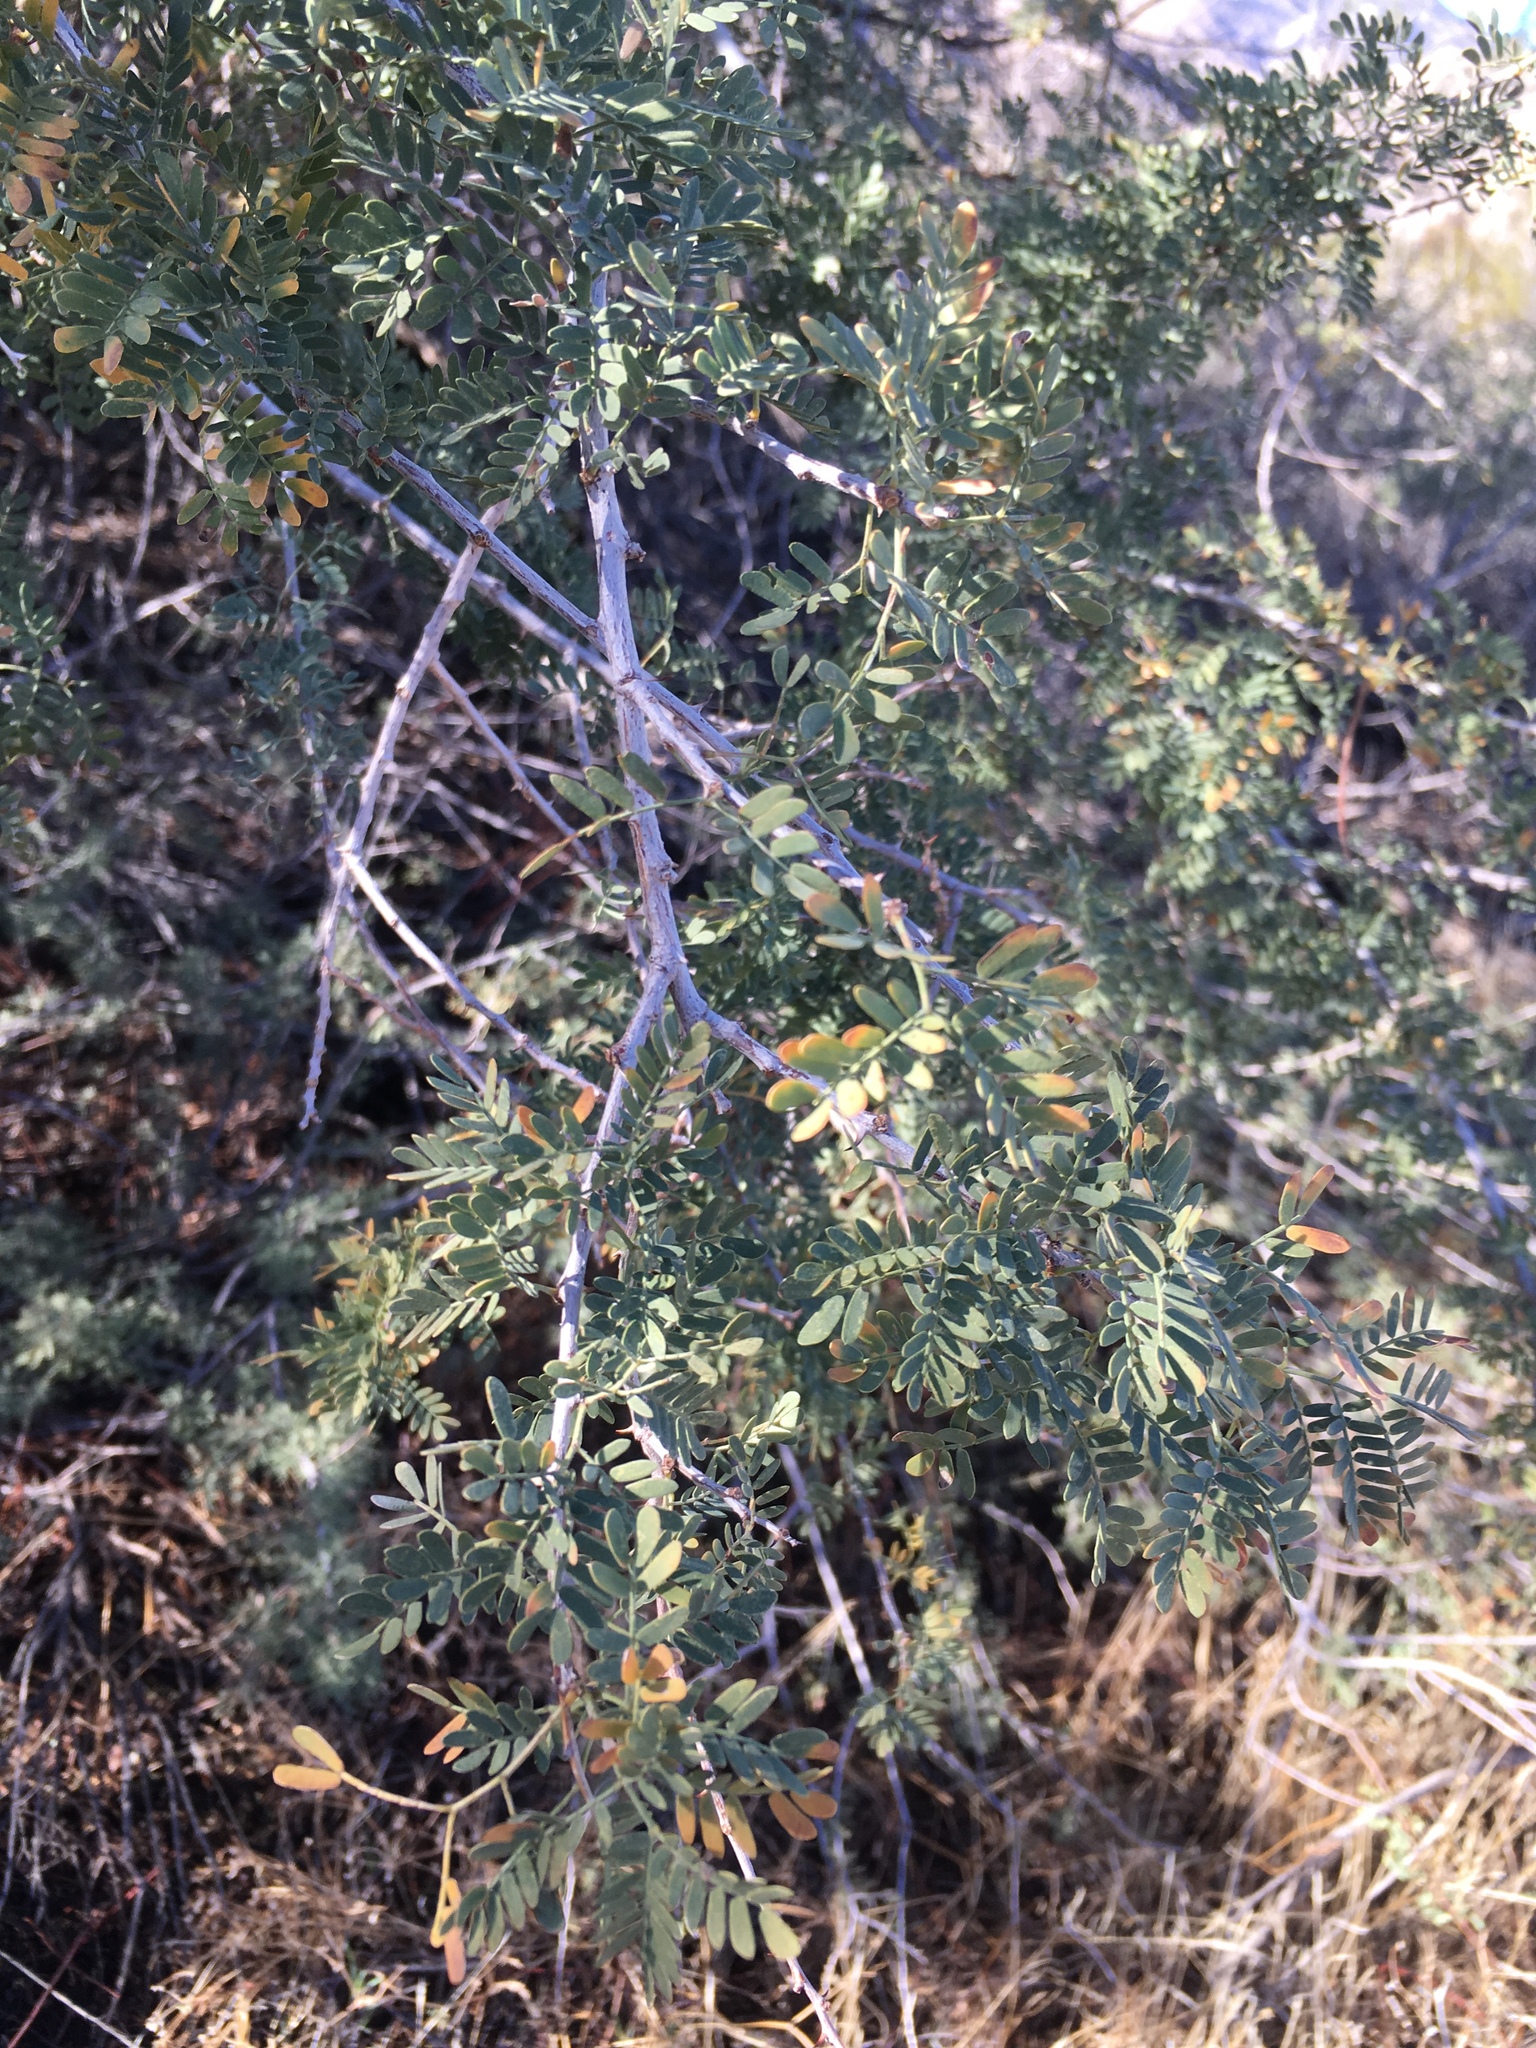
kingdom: Plantae
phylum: Tracheophyta
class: Magnoliopsida
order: Fabales
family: Fabaceae
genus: Senegalia
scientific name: Senegalia greggii
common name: Texas-mimosa
